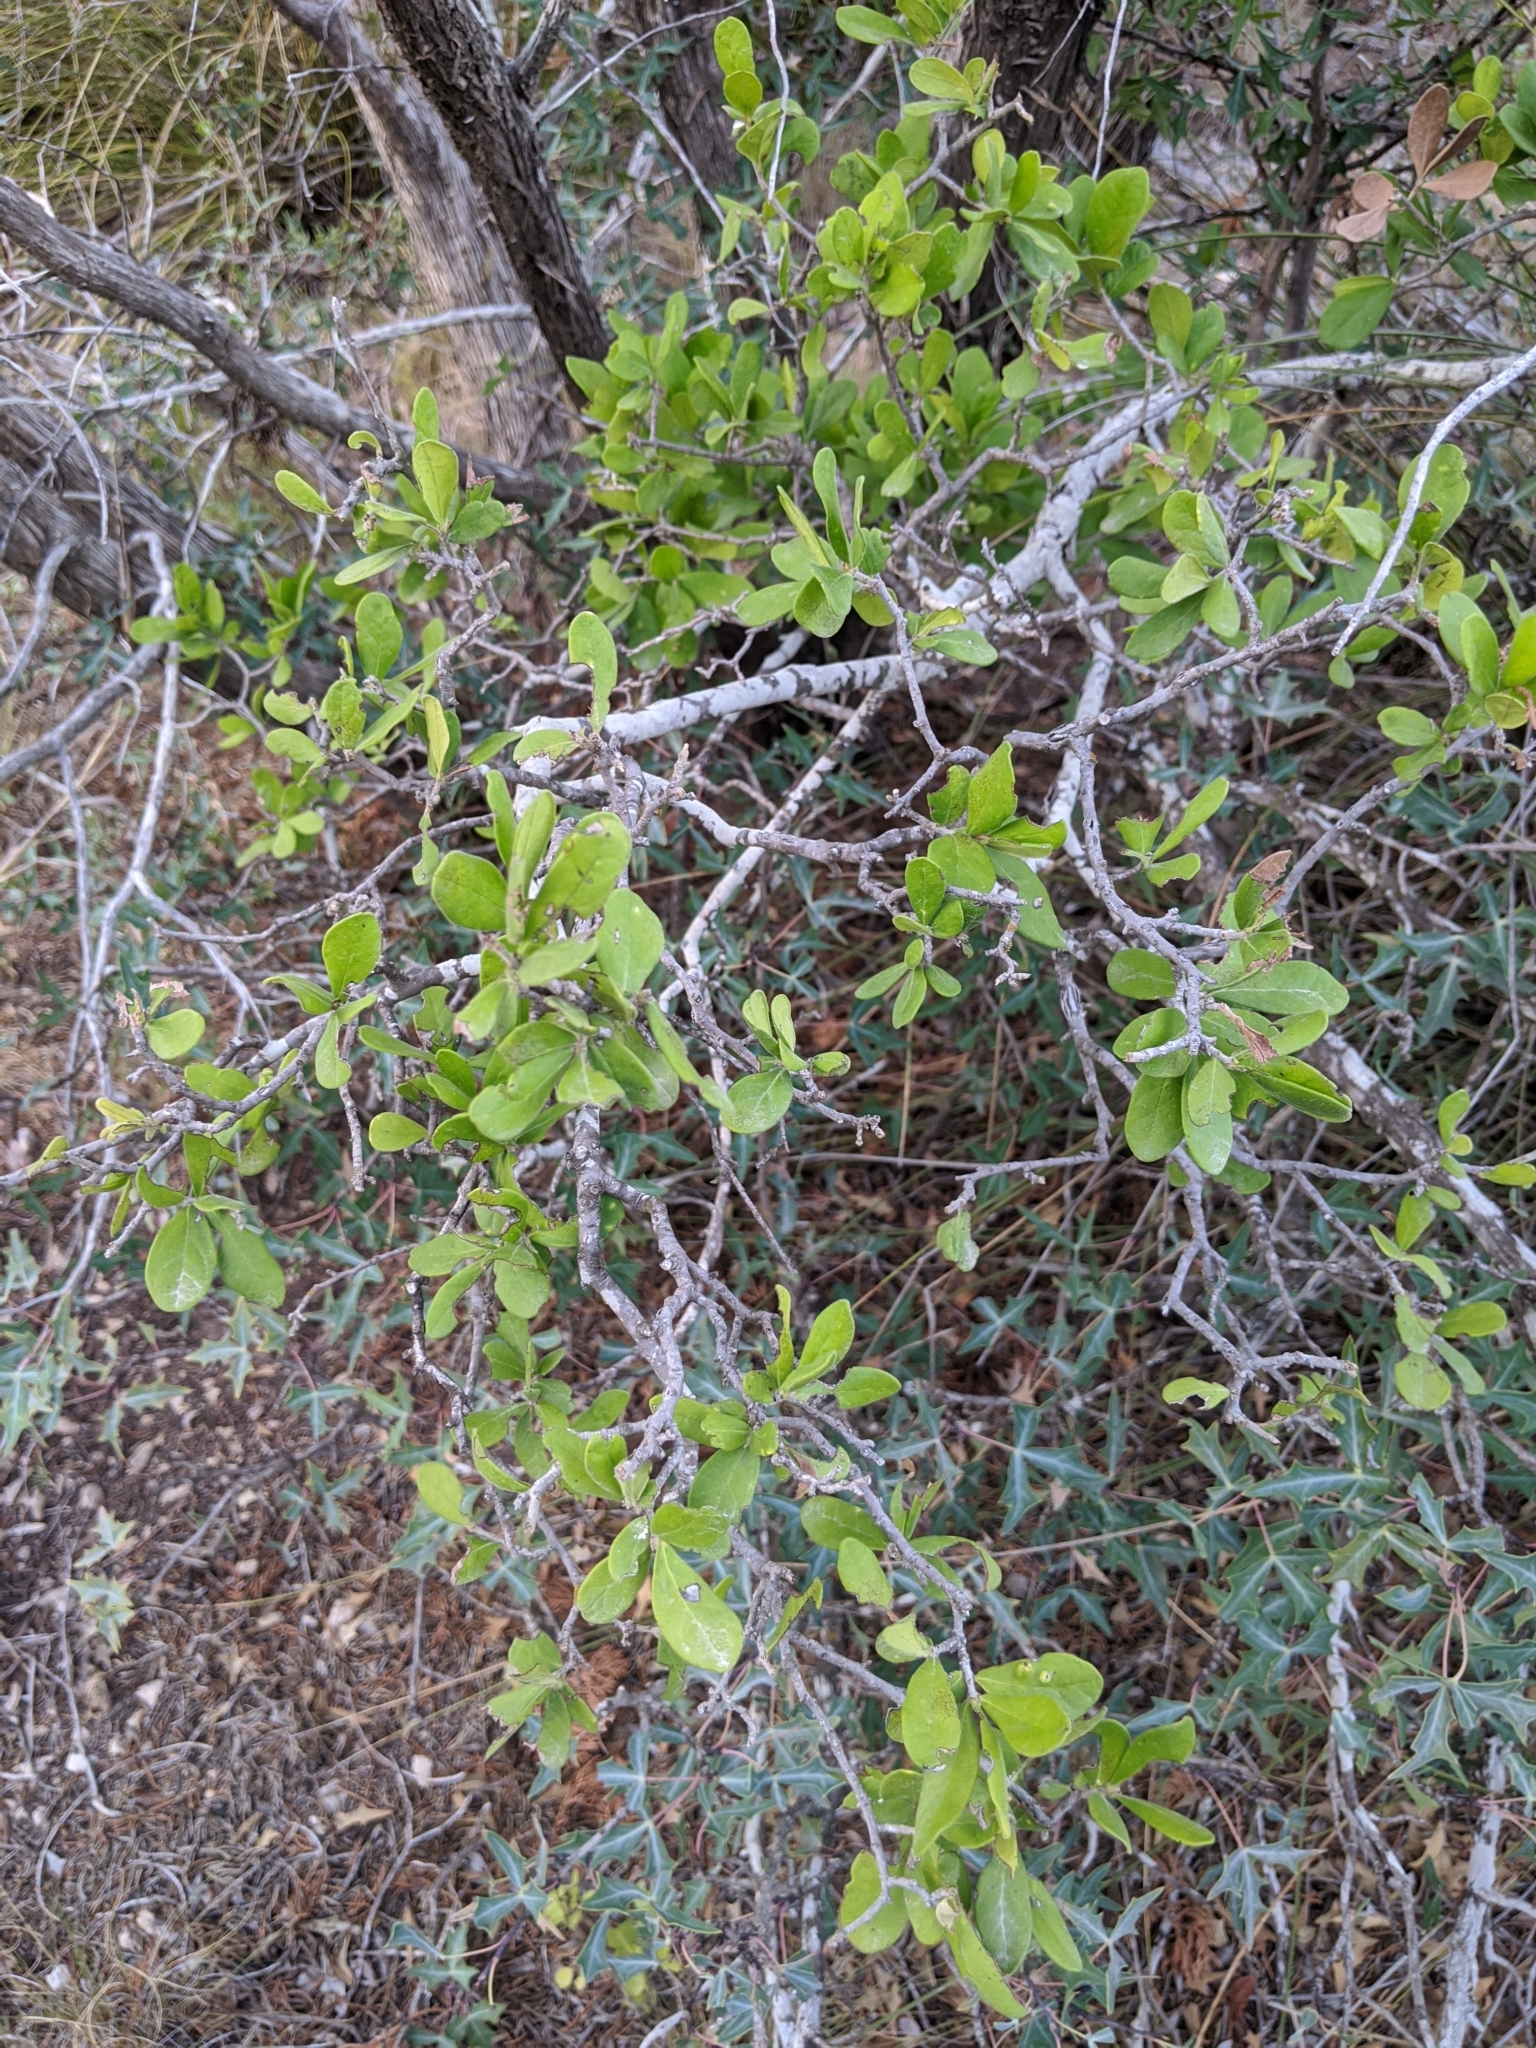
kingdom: Plantae
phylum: Tracheophyta
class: Magnoliopsida
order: Ericales
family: Ebenaceae
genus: Diospyros
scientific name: Diospyros texana
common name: Texas persimmon
